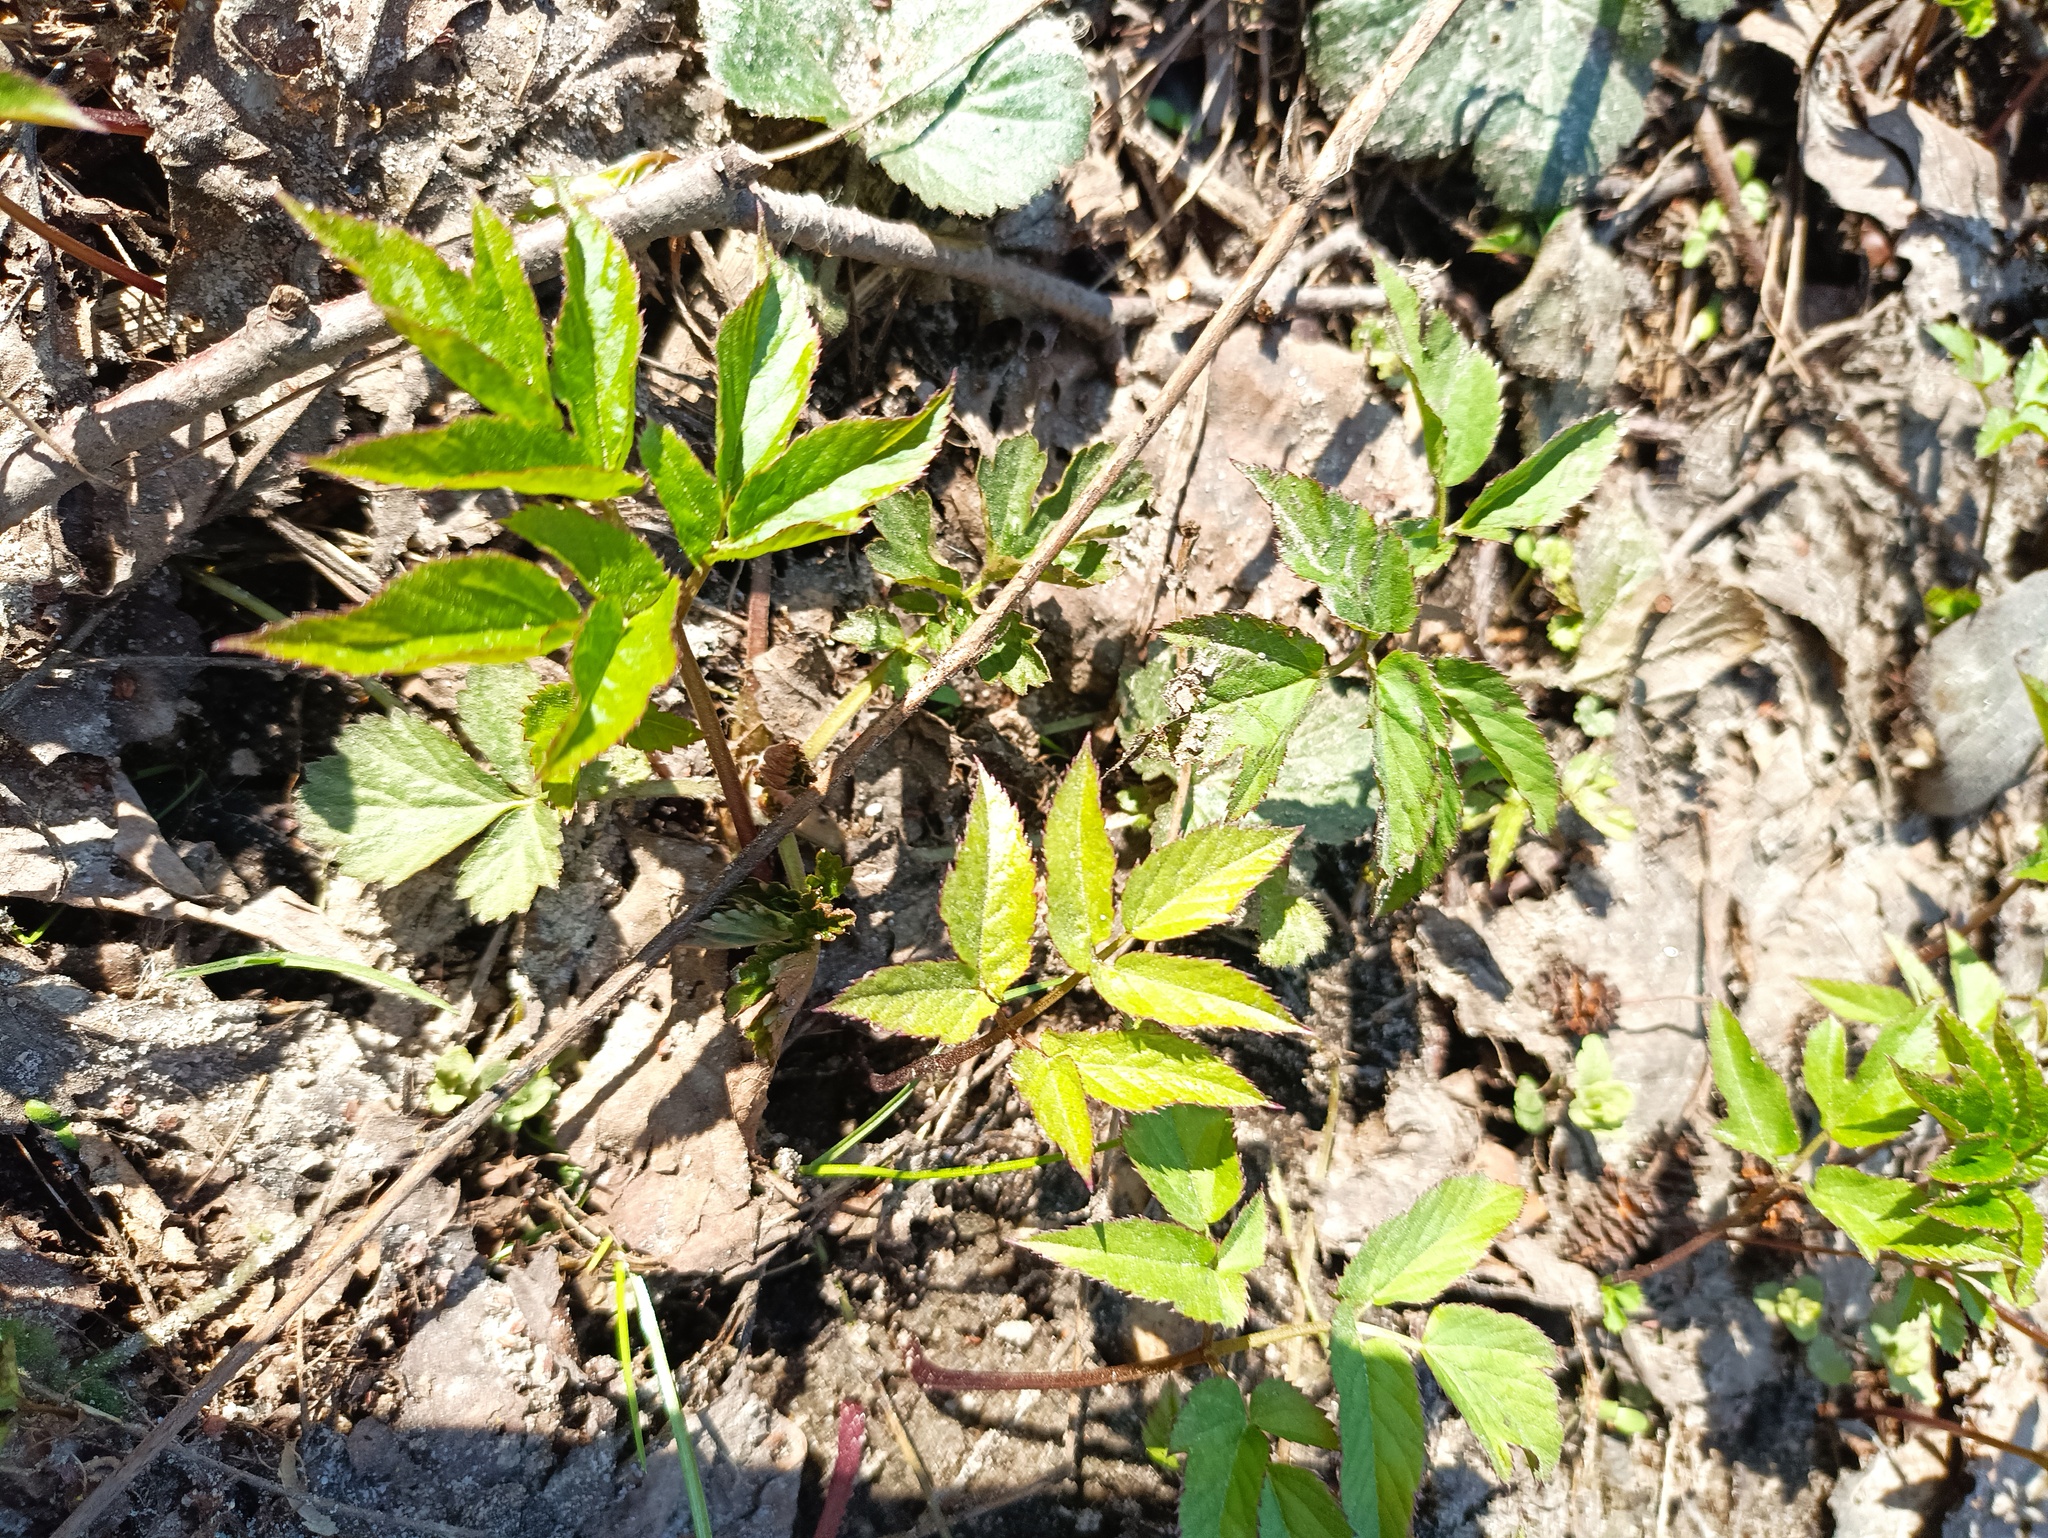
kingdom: Plantae
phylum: Tracheophyta
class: Magnoliopsida
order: Apiales
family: Apiaceae
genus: Aegopodium
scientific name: Aegopodium podagraria
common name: Ground-elder
